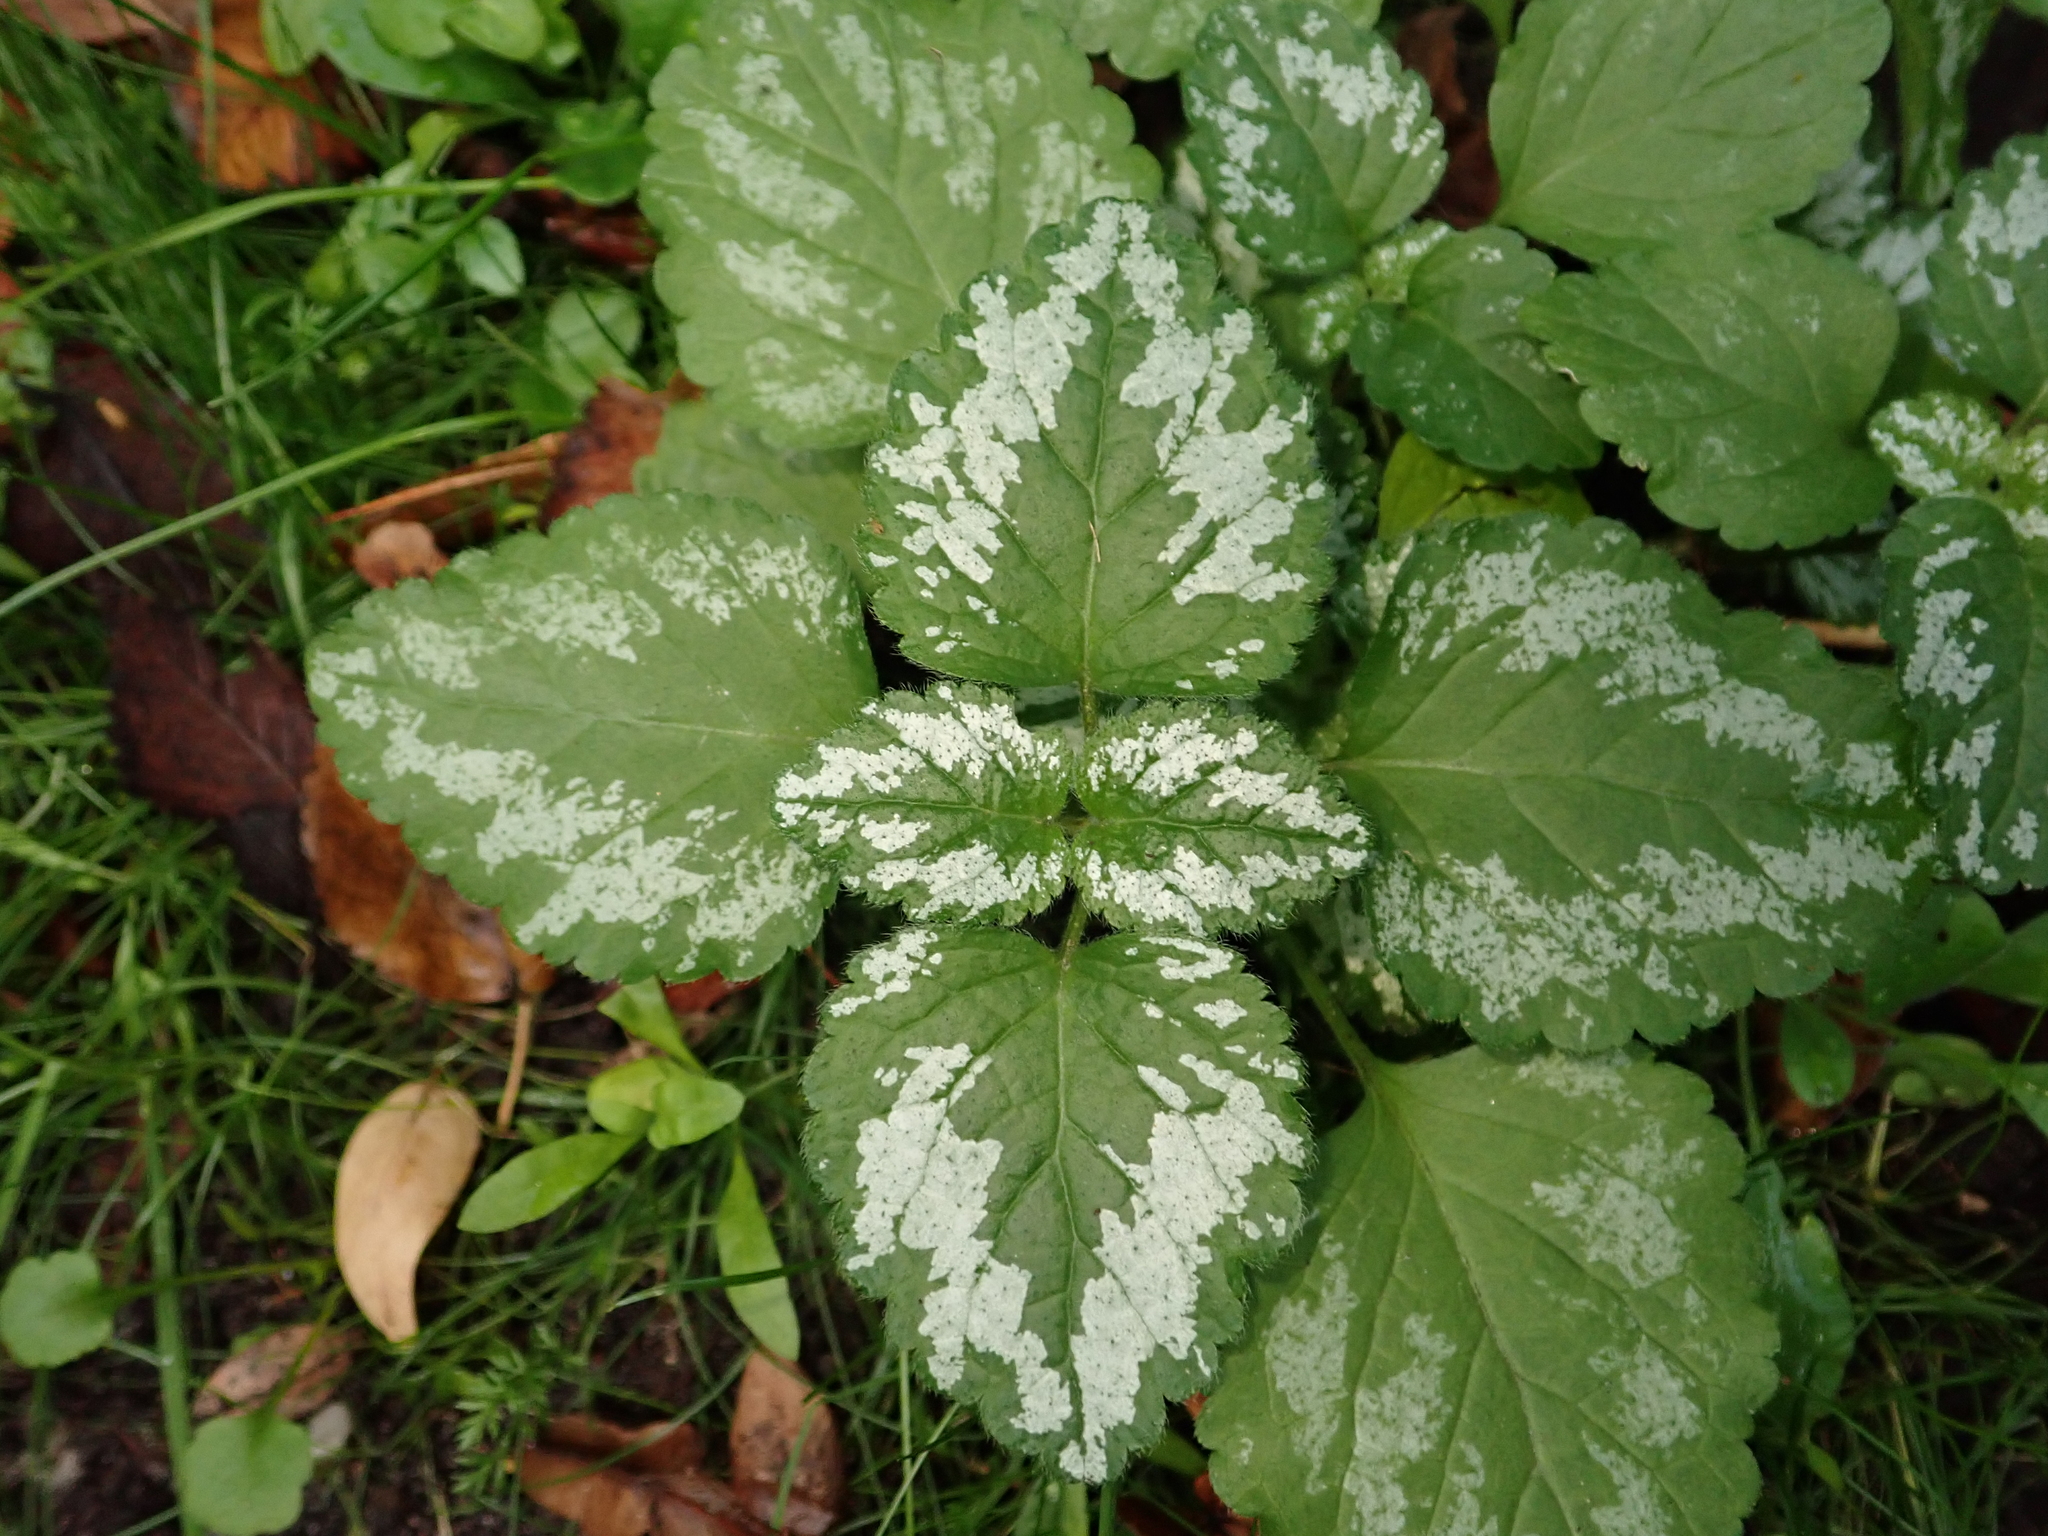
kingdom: Plantae
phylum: Tracheophyta
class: Magnoliopsida
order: Lamiales
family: Lamiaceae
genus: Lamium
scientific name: Lamium galeobdolon
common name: Yellow archangel
